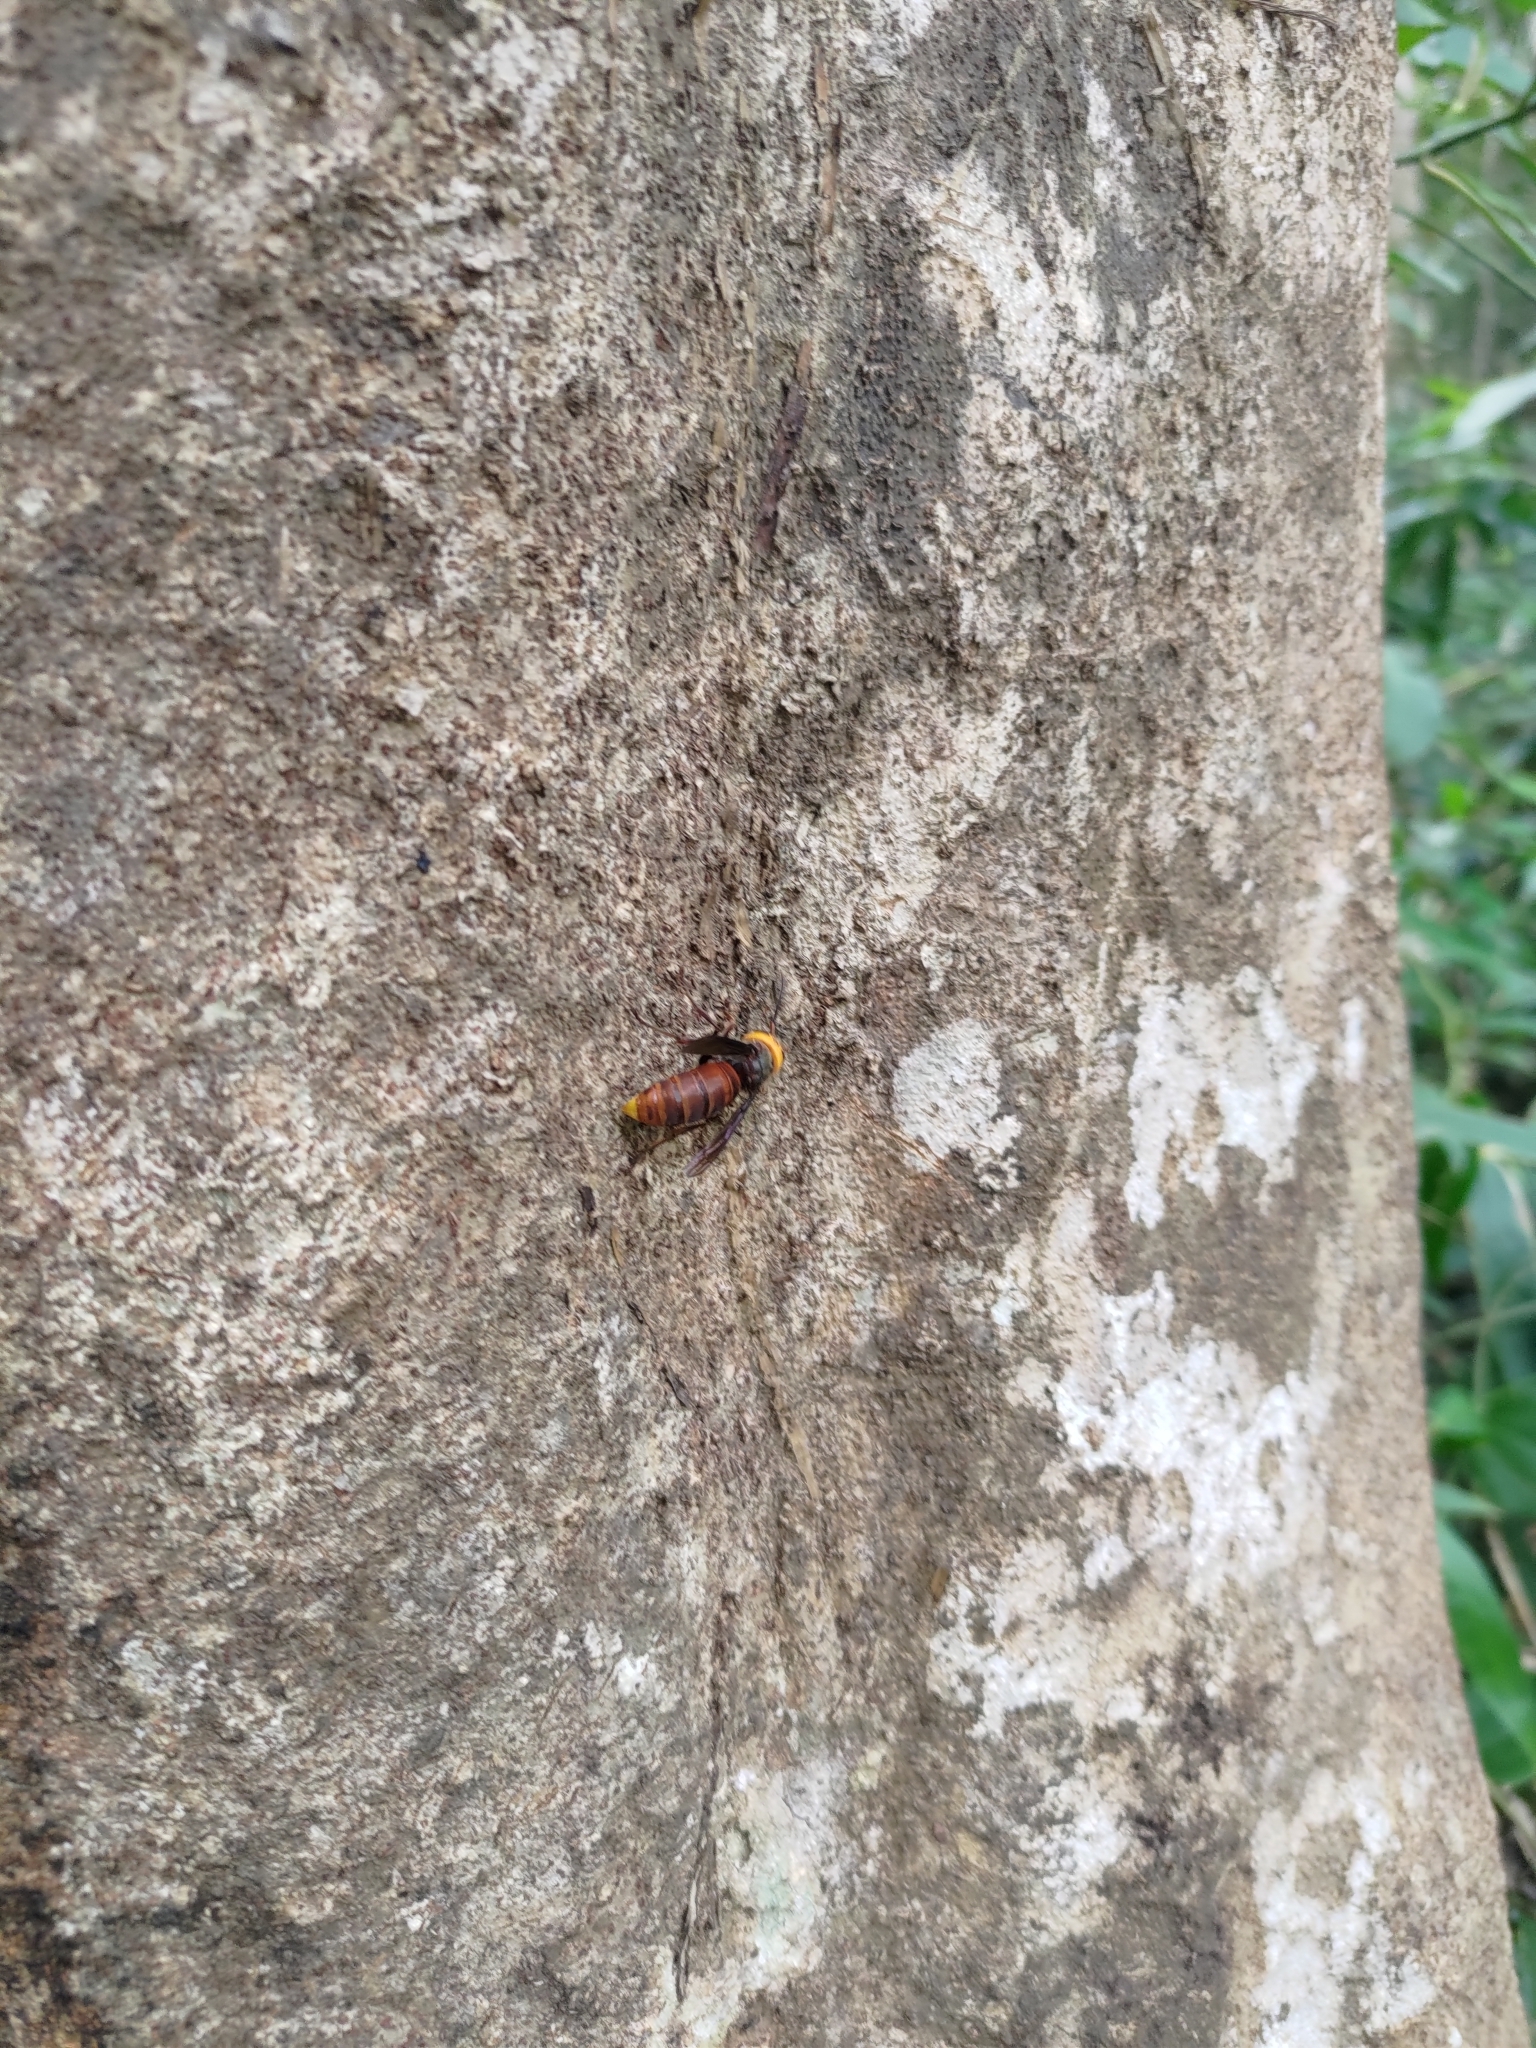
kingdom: Animalia
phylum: Arthropoda
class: Insecta
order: Hymenoptera
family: Vespidae
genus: Vespa
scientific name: Vespa mandarinia
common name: Asian giant hornet
